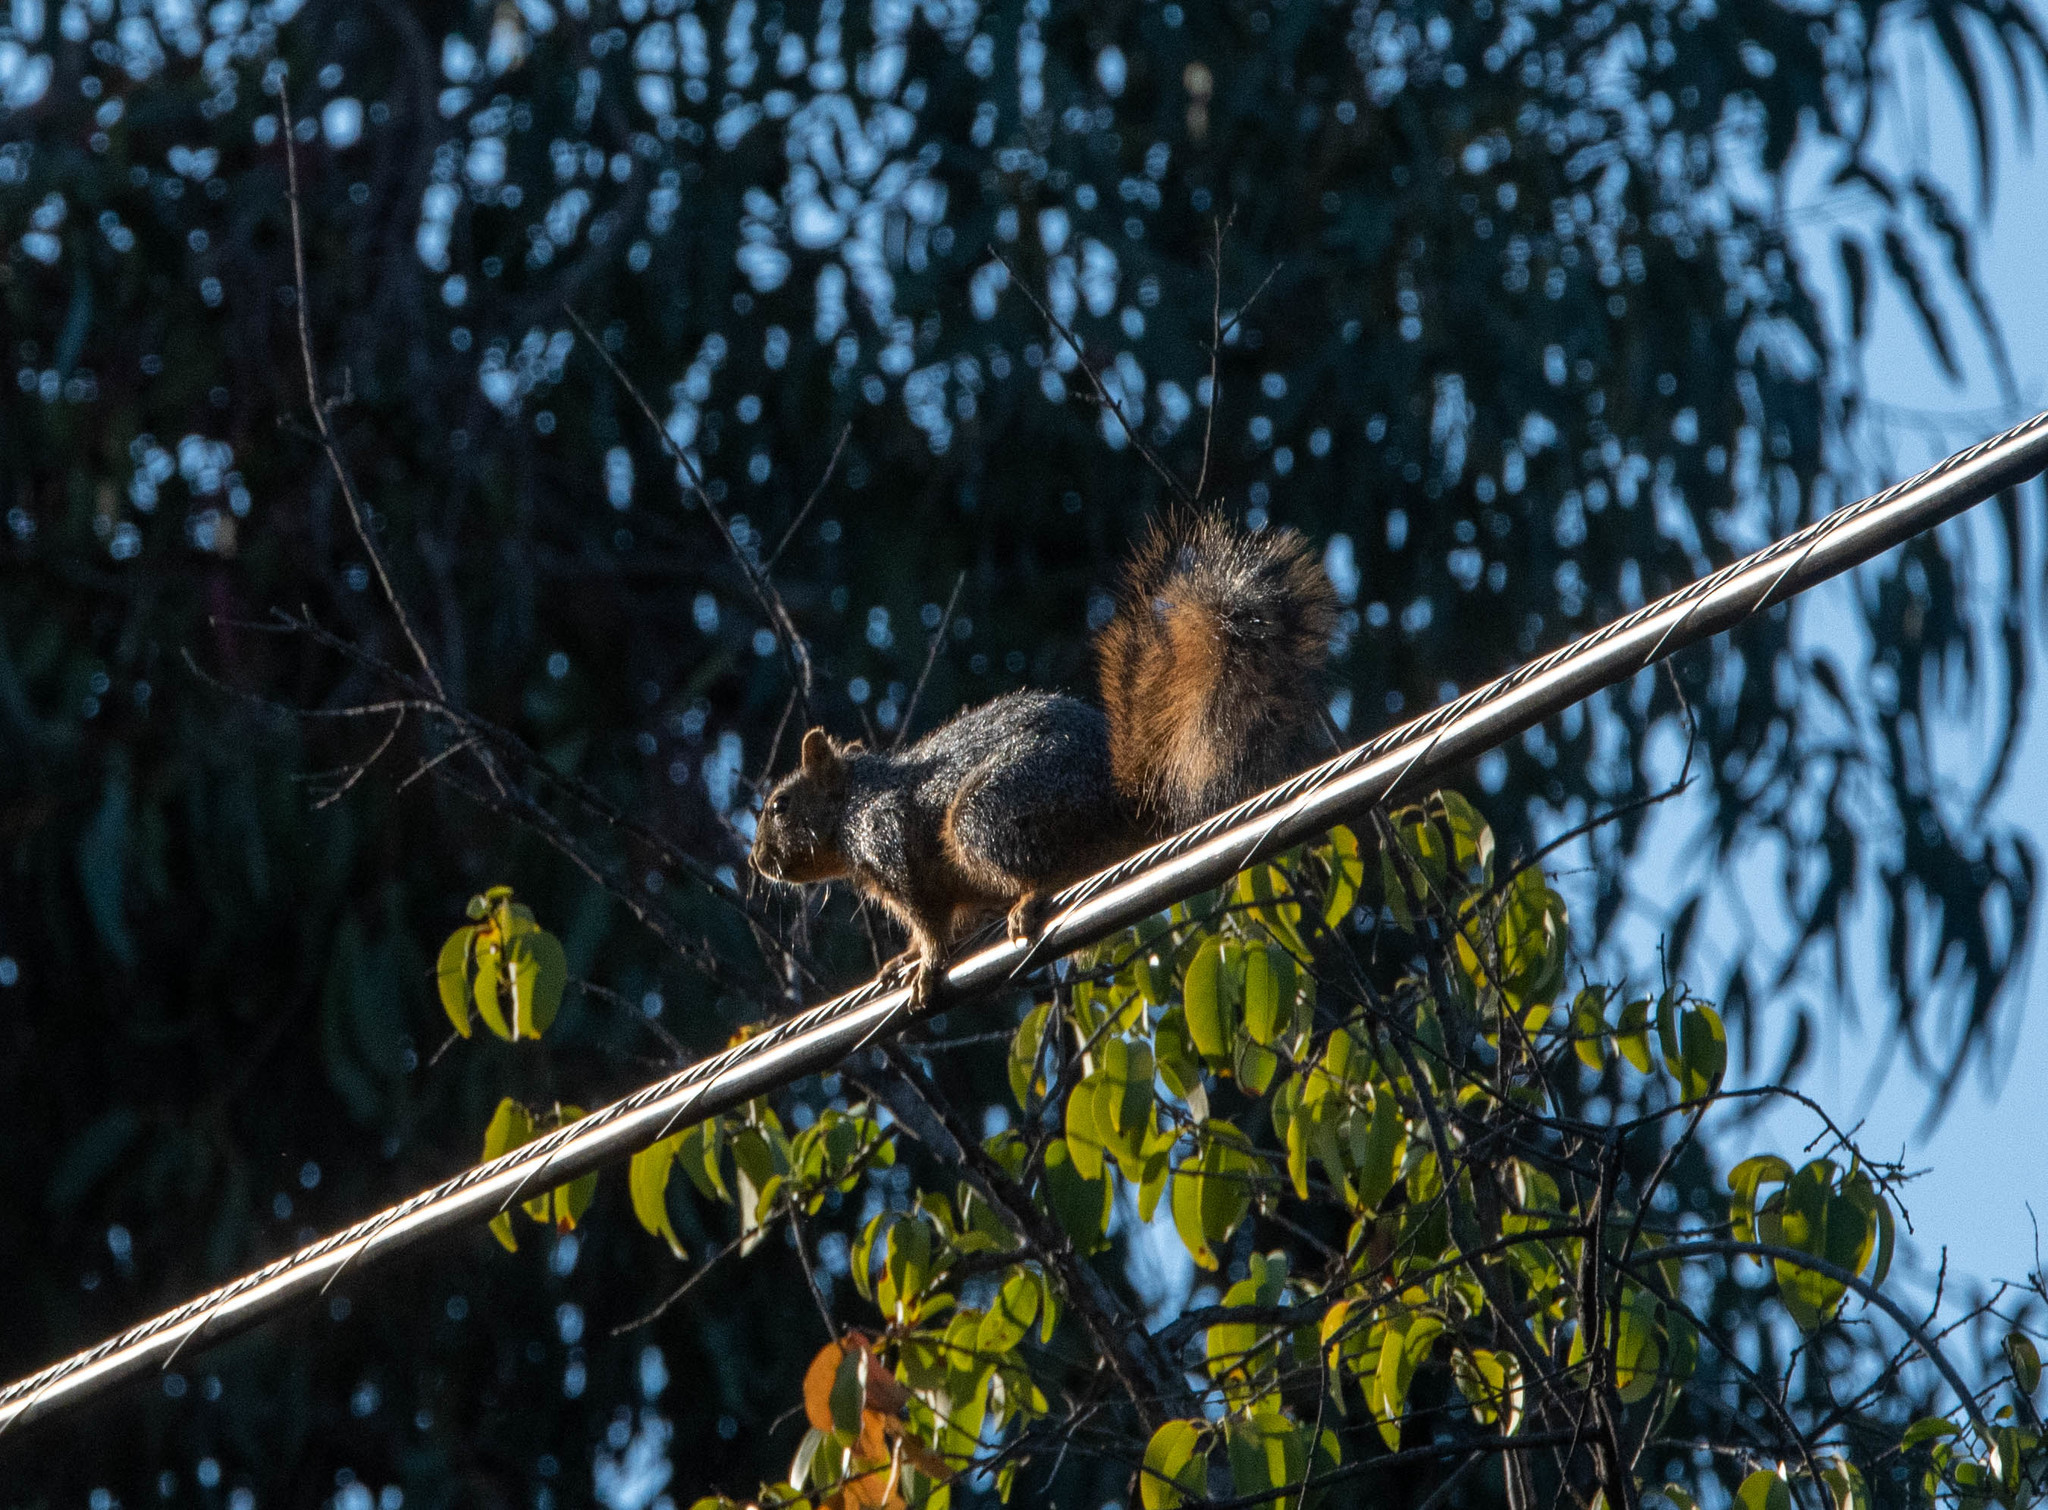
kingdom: Animalia
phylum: Chordata
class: Mammalia
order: Rodentia
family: Sciuridae
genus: Sciurus
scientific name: Sciurus niger
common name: Fox squirrel
